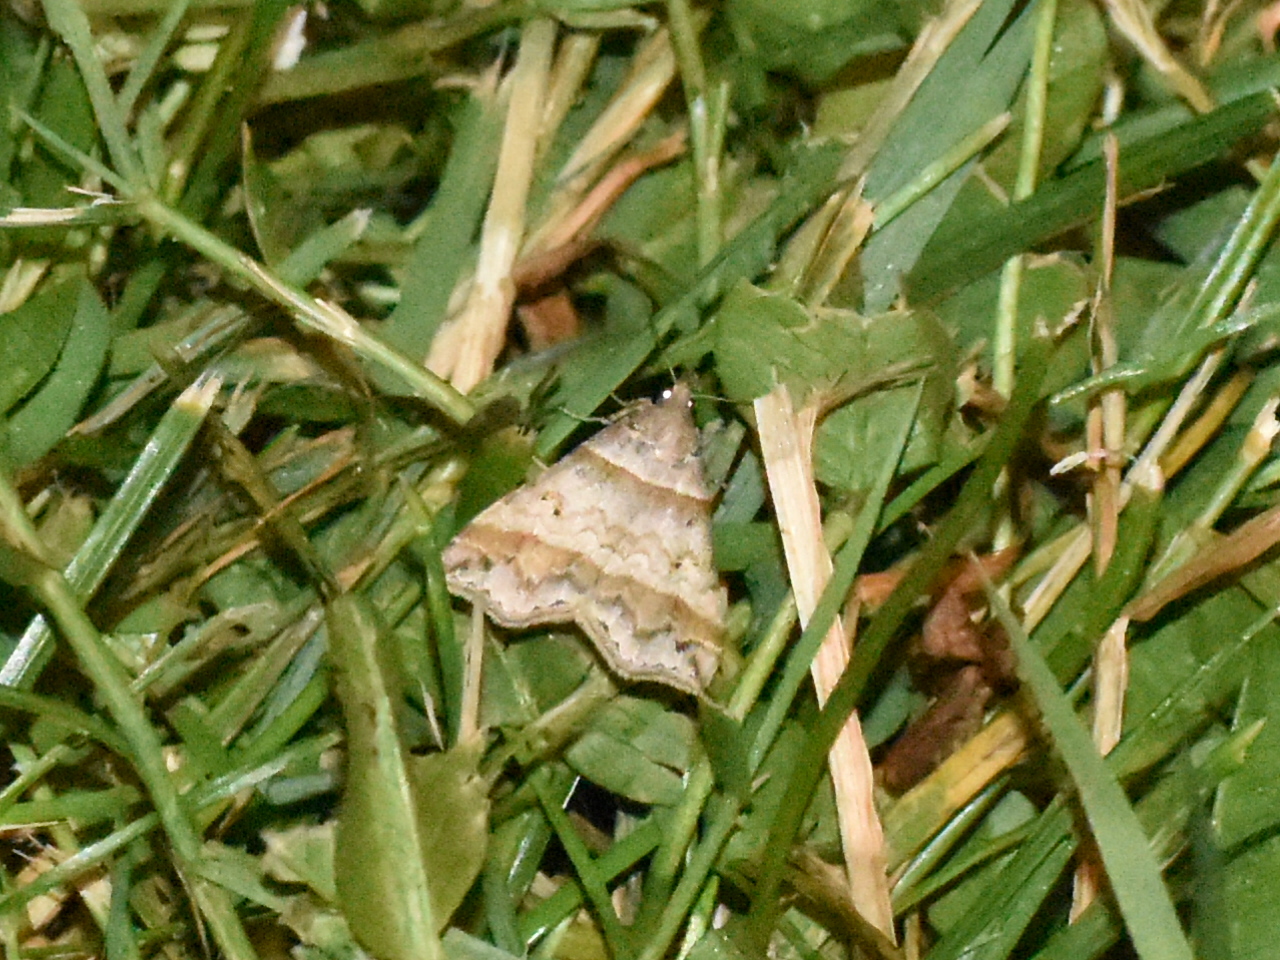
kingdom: Animalia
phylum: Arthropoda
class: Insecta
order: Lepidoptera
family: Erebidae
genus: Phaeolita
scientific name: Phaeolita pyramusalis
